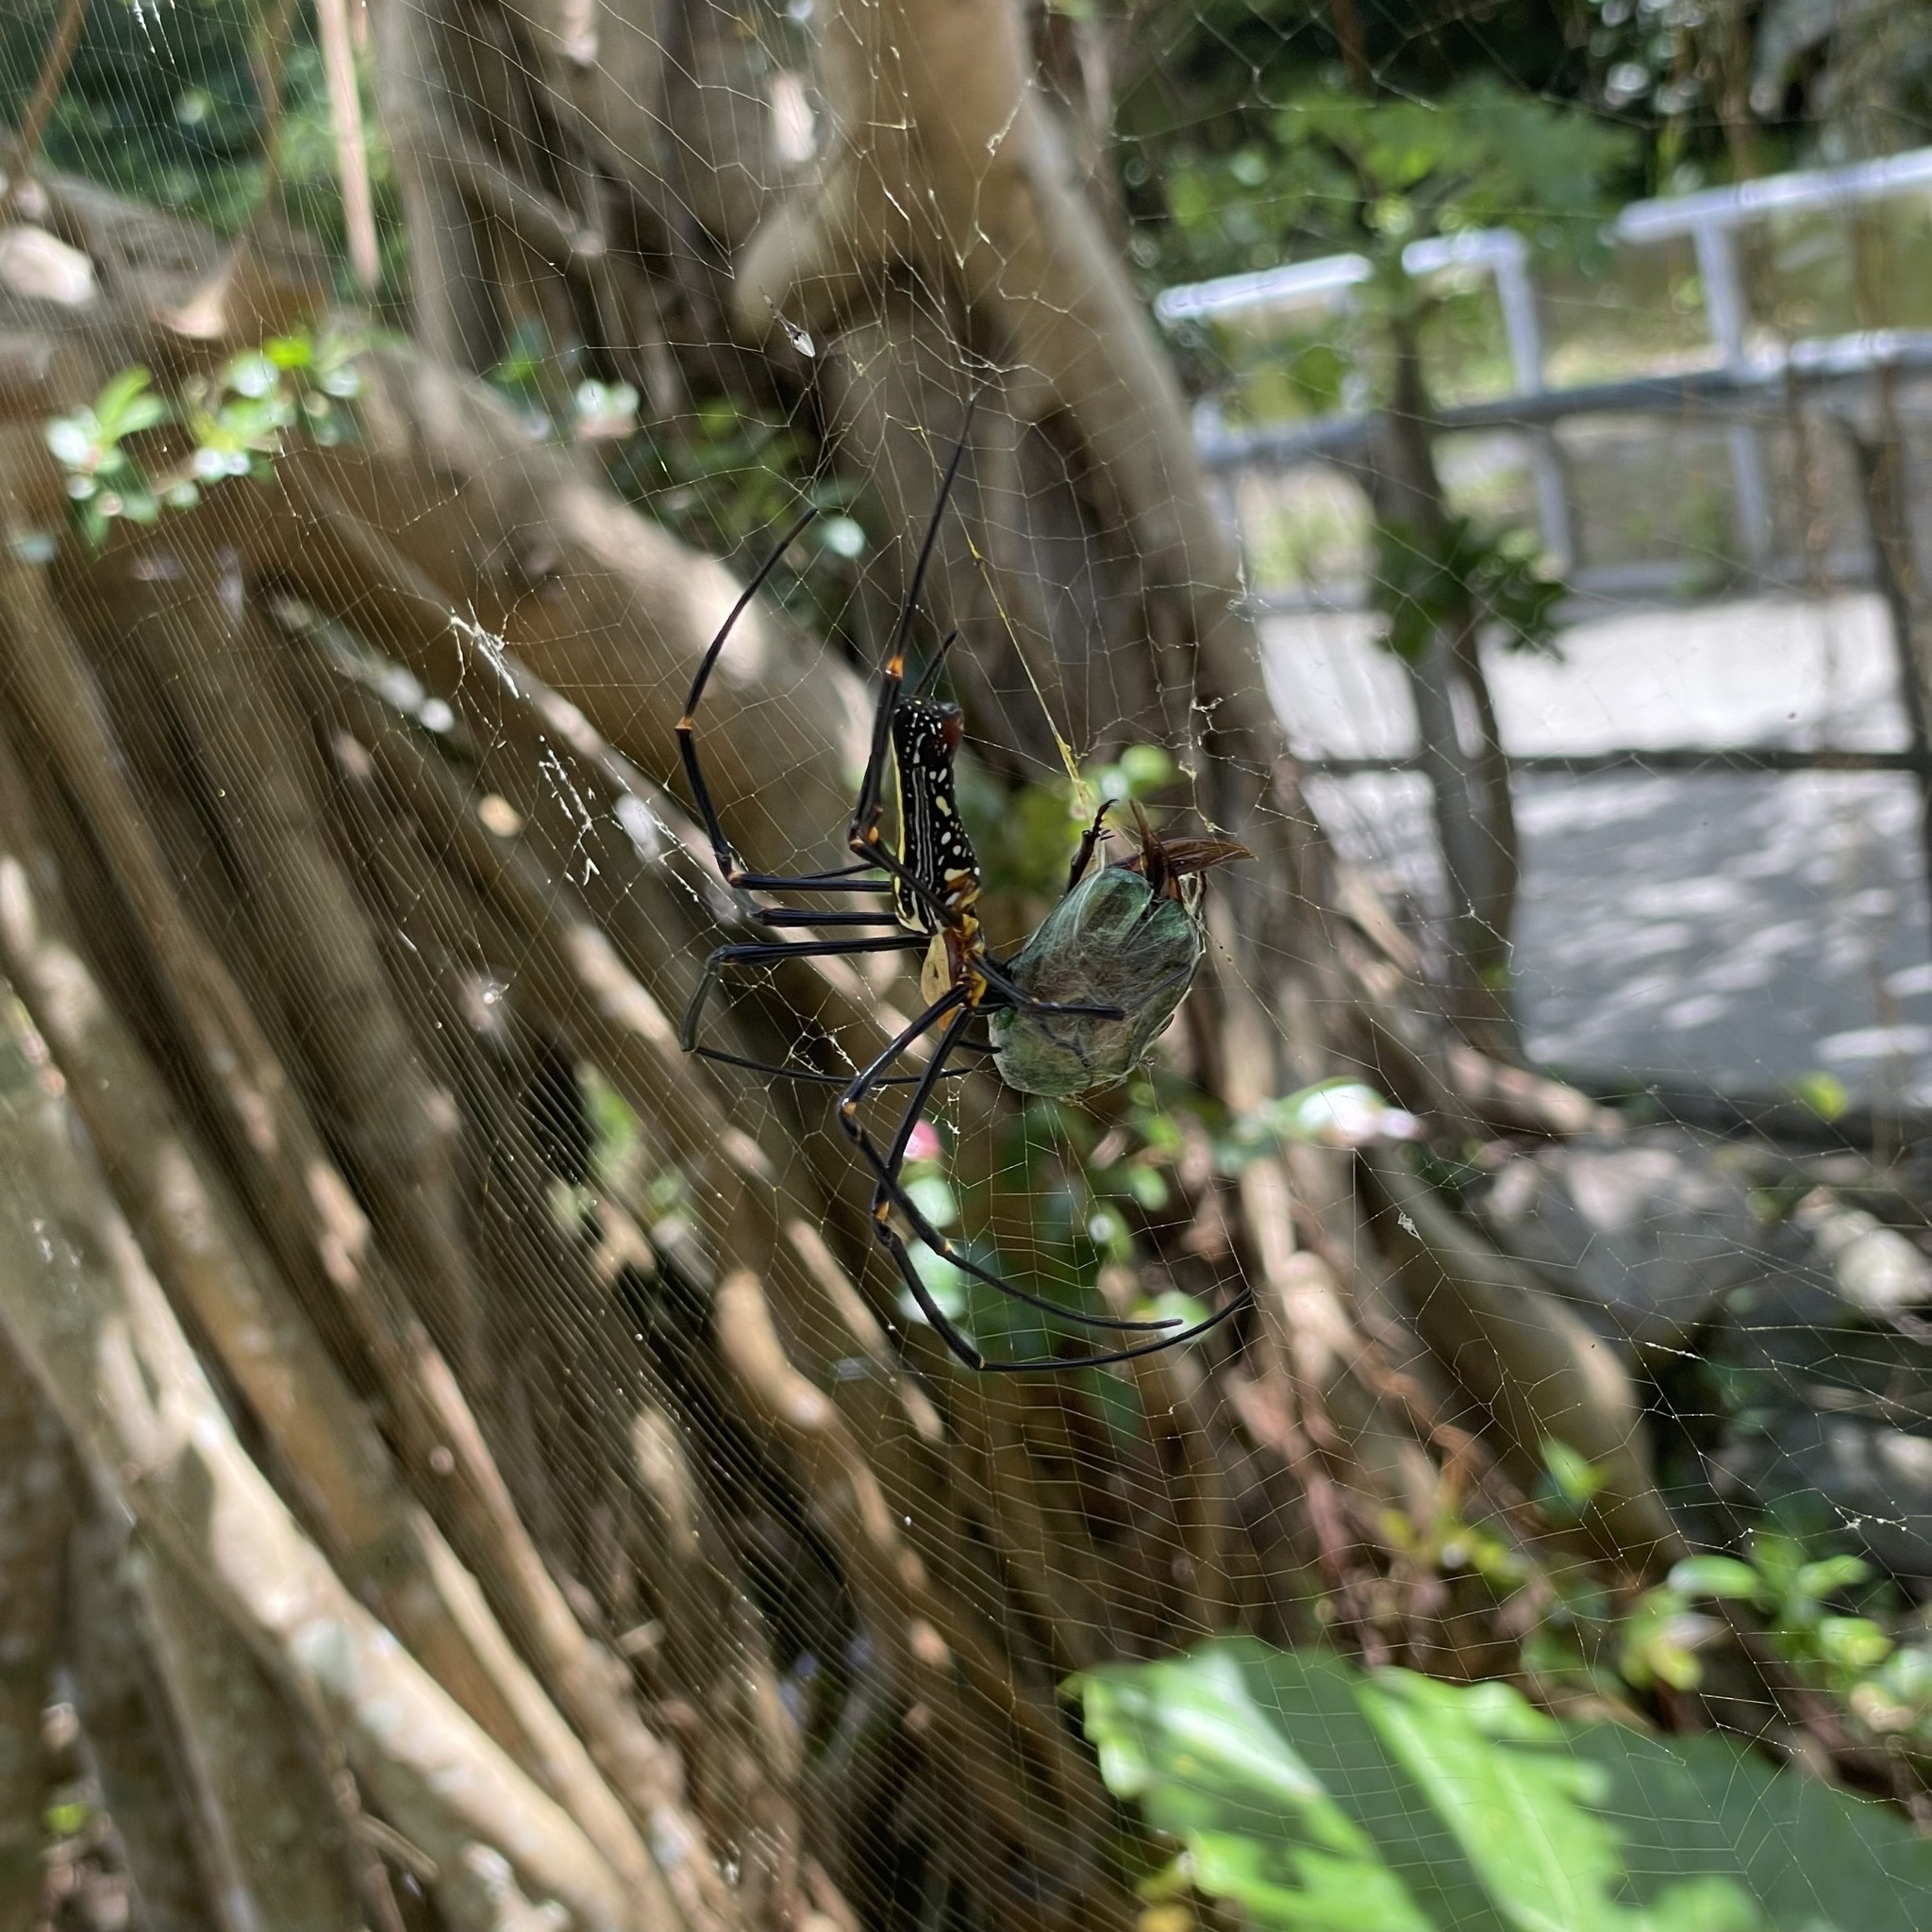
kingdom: Animalia
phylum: Arthropoda
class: Arachnida
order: Araneae
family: Araneidae
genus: Nephila
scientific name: Nephila pilipes
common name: Giant golden orb weaver
